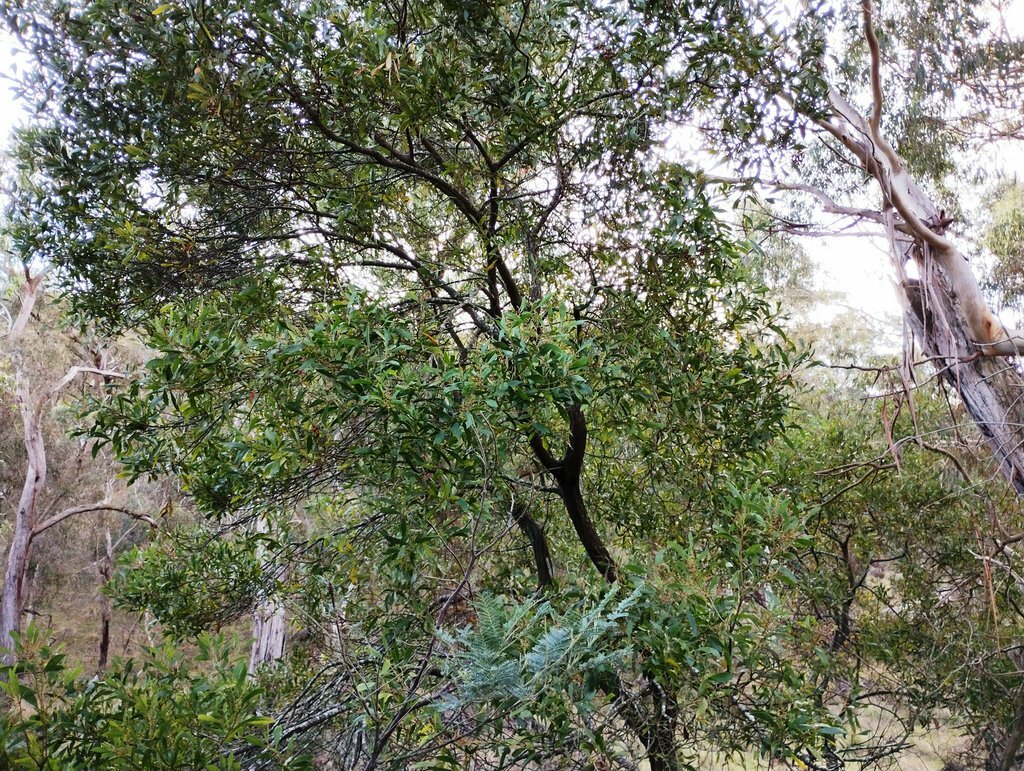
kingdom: Plantae
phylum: Tracheophyta
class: Magnoliopsida
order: Fabales
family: Fabaceae
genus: Acacia
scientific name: Acacia melanoxylon
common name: Blackwood
